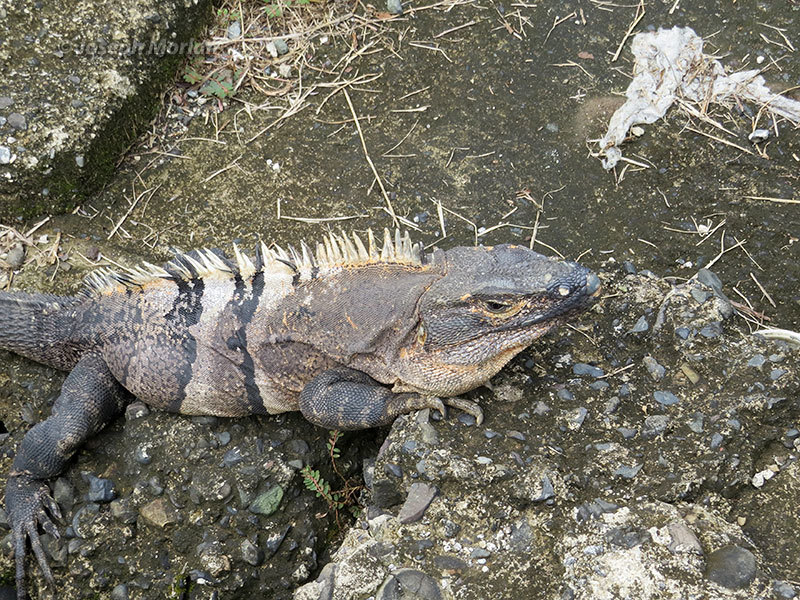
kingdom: Animalia
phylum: Chordata
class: Squamata
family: Iguanidae
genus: Ctenosaura
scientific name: Ctenosaura similis
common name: Black spiny-tailed iguana
